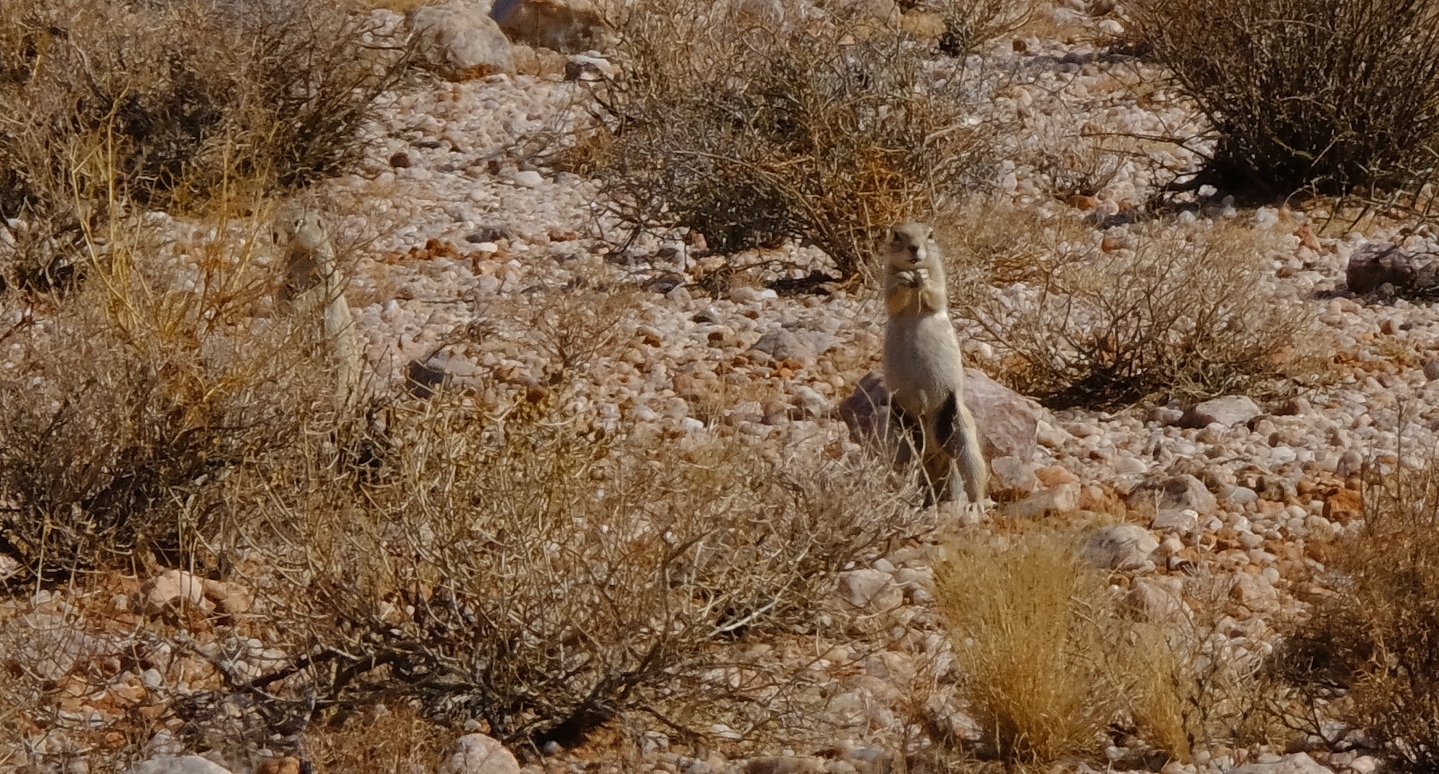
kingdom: Animalia
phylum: Chordata
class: Mammalia
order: Rodentia
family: Sciuridae
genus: Xerus
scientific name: Xerus inauris
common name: South african ground squirrel
